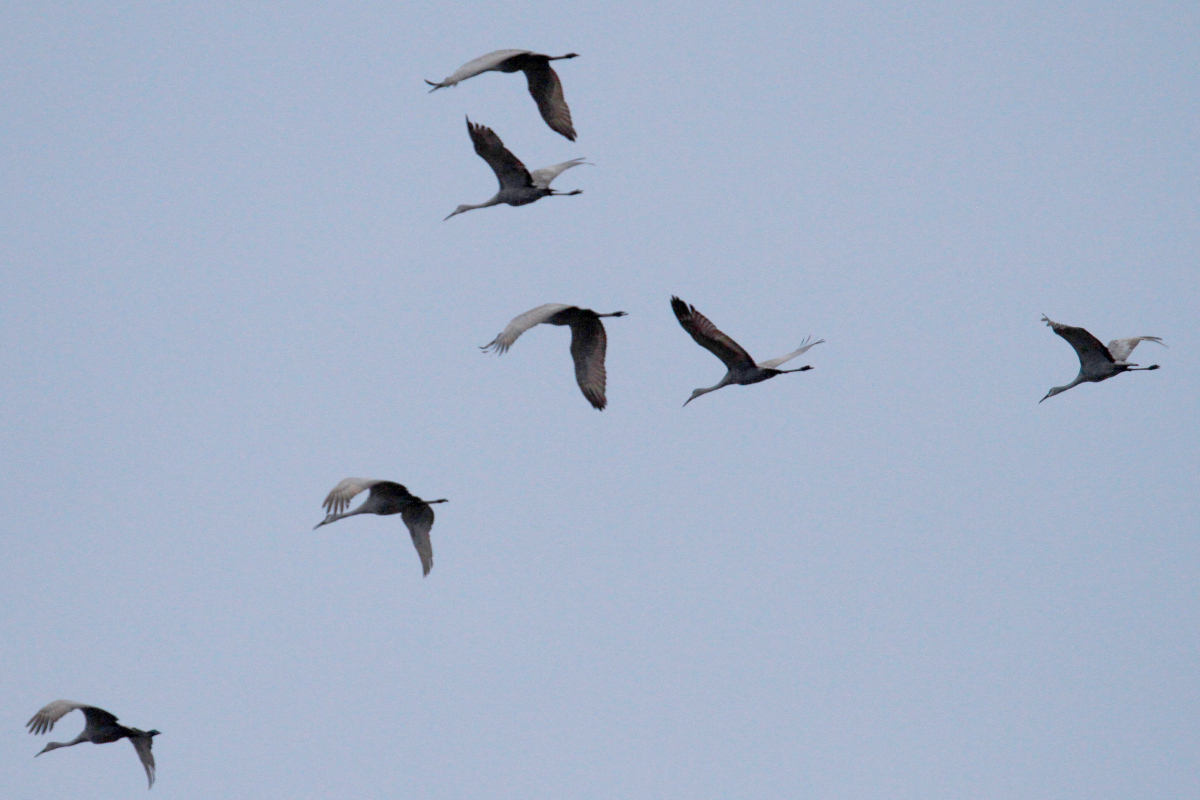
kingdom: Animalia
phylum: Chordata
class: Aves
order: Gruiformes
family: Gruidae
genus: Grus
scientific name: Grus canadensis
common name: Sandhill crane
